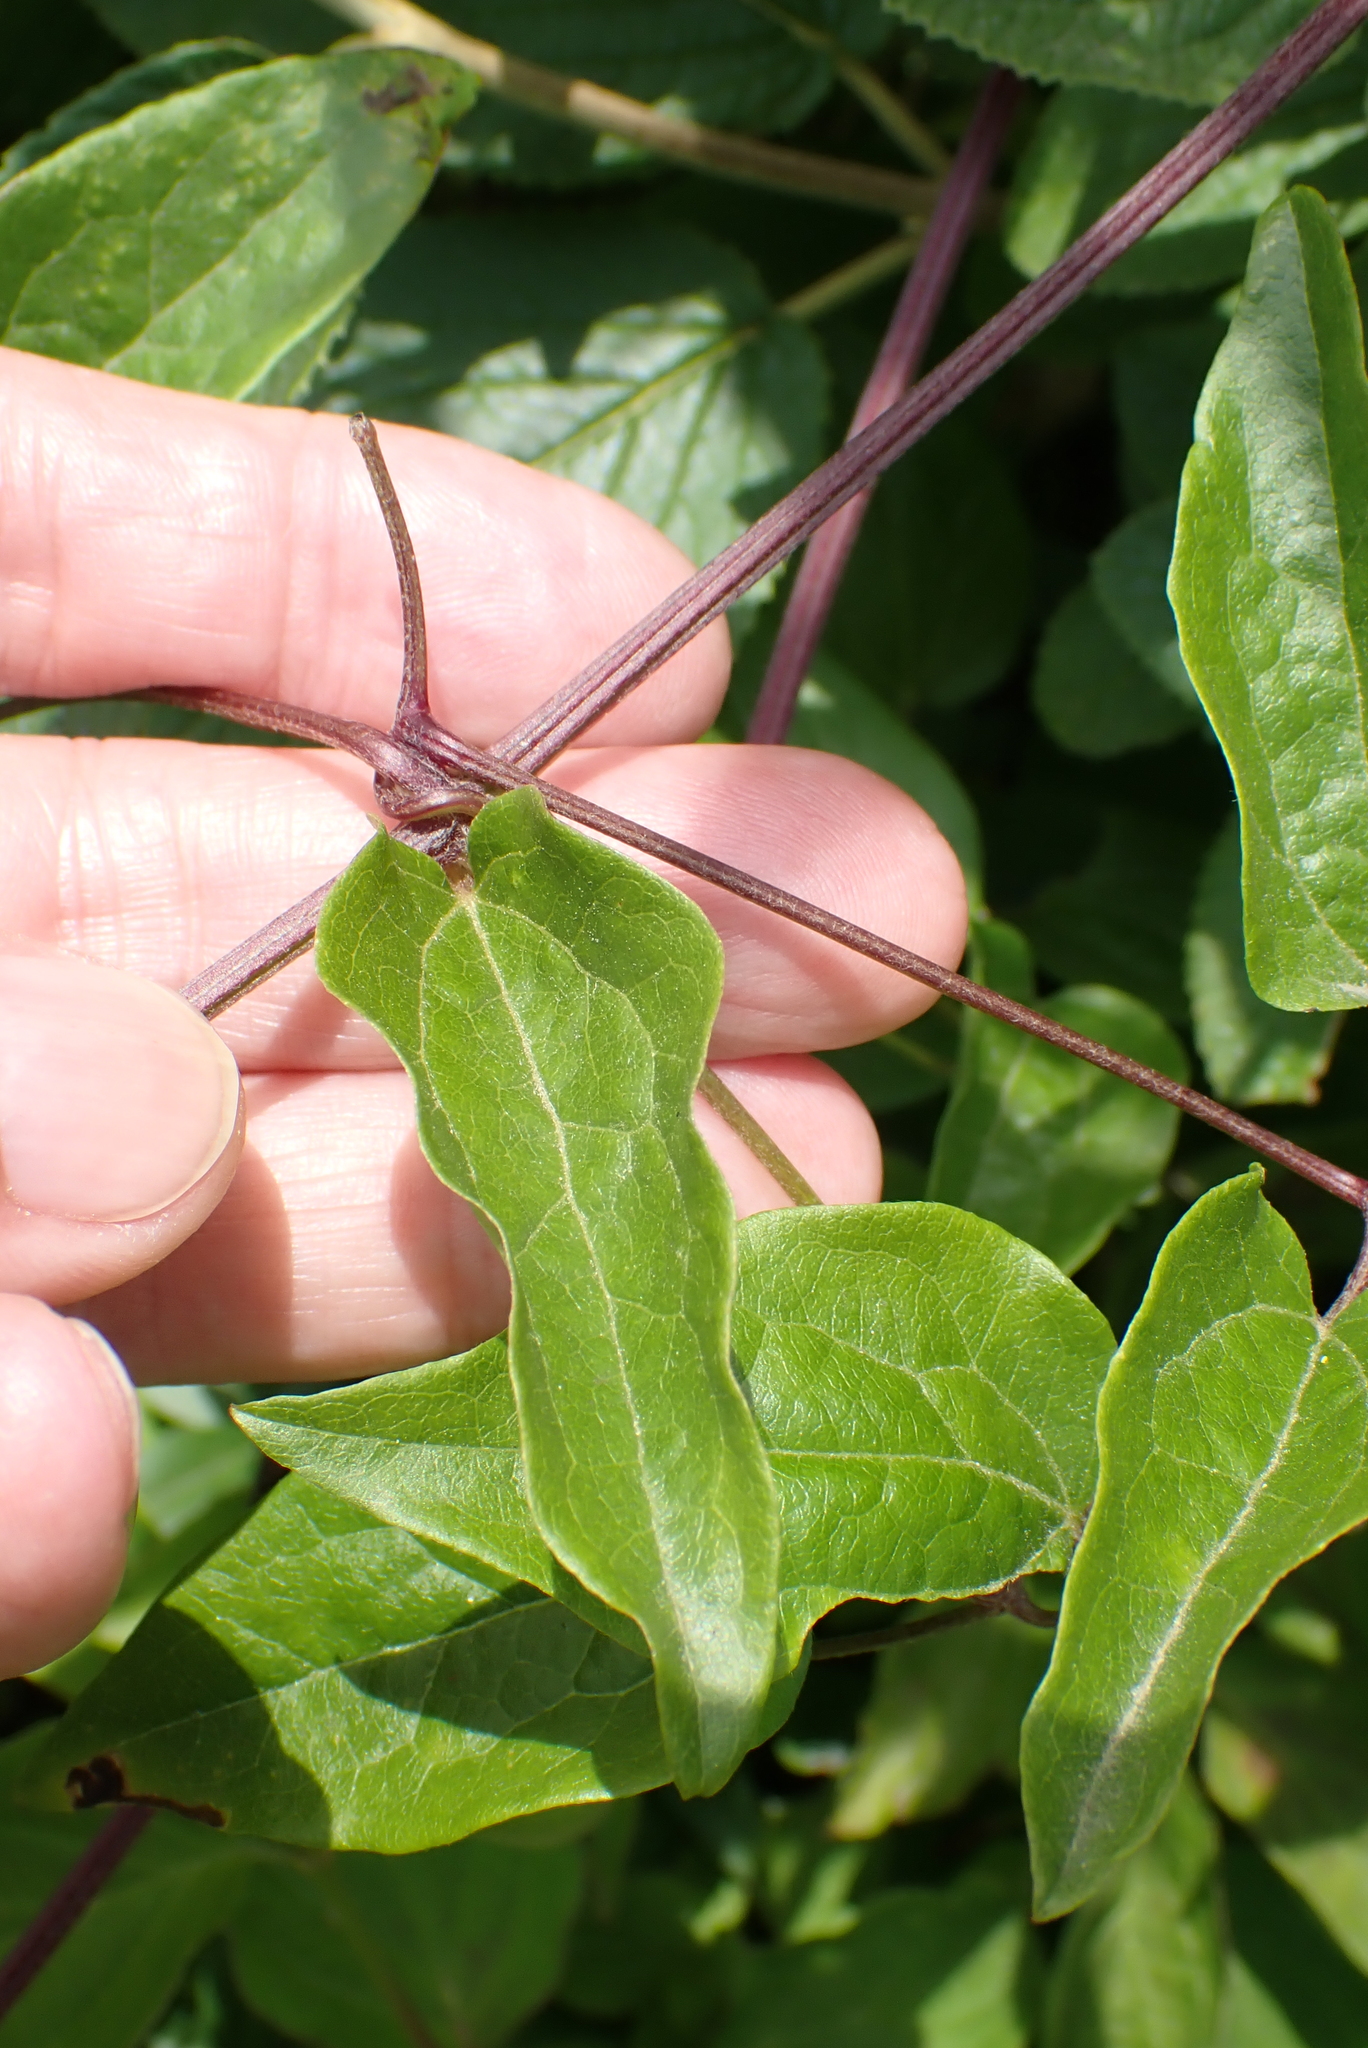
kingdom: Plantae
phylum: Tracheophyta
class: Magnoliopsida
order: Ranunculales
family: Ranunculaceae
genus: Clematis
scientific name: Clematis vitalba
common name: Evergreen clematis
